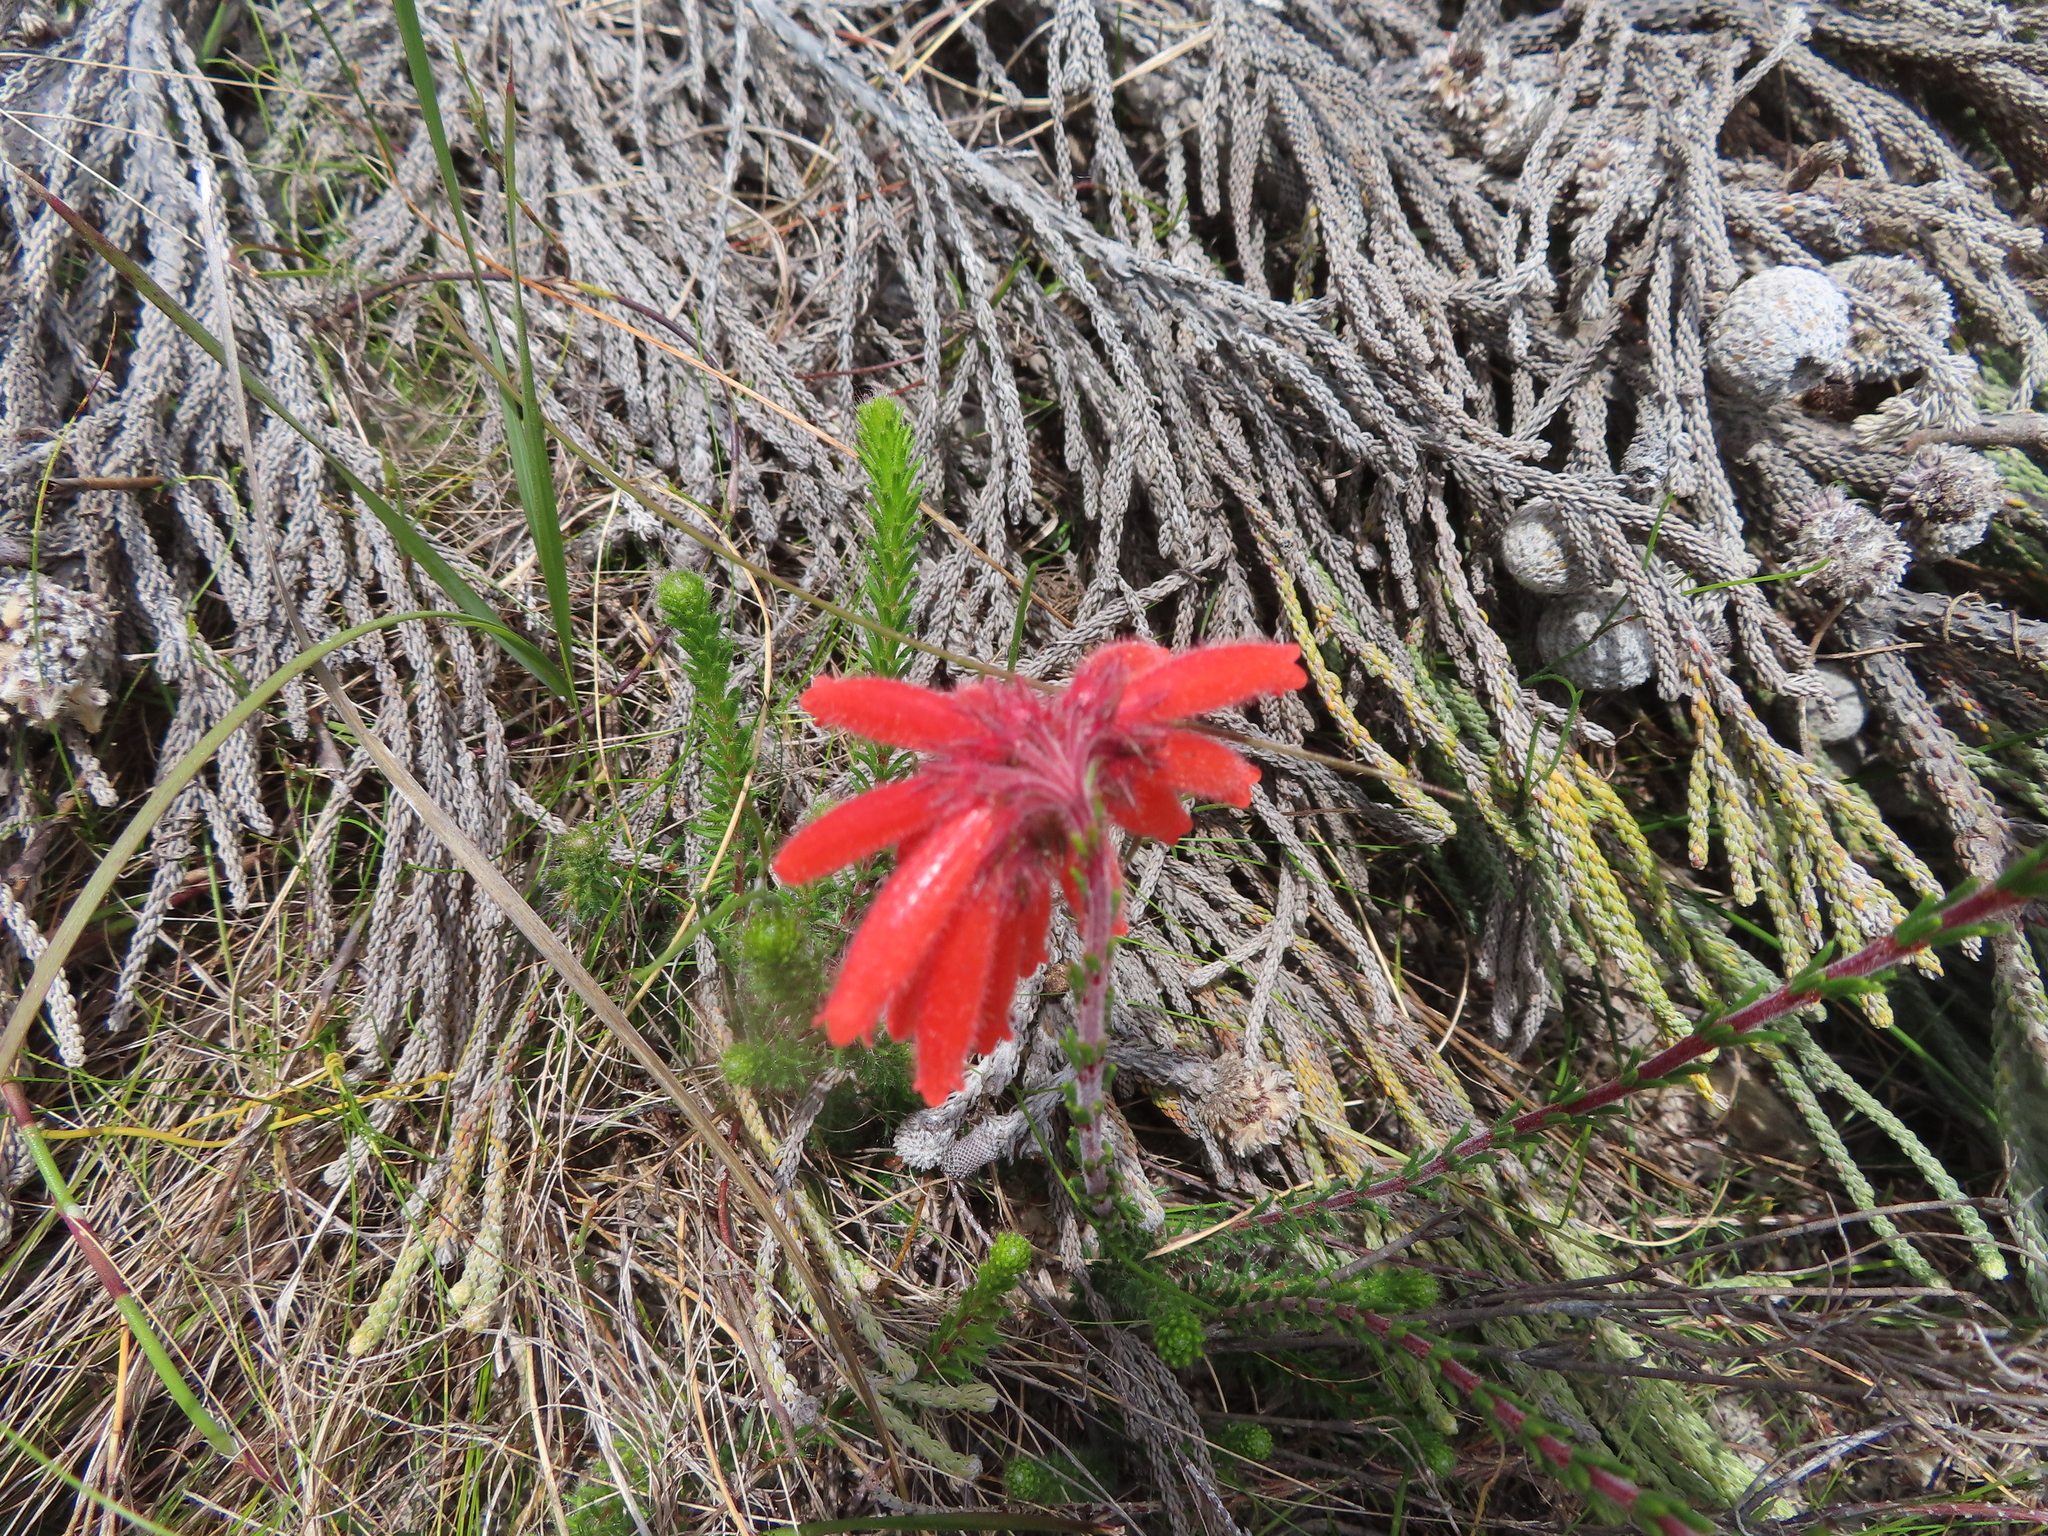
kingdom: Plantae
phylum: Tracheophyta
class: Magnoliopsida
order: Ericales
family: Ericaceae
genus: Erica
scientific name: Erica cerinthoides
